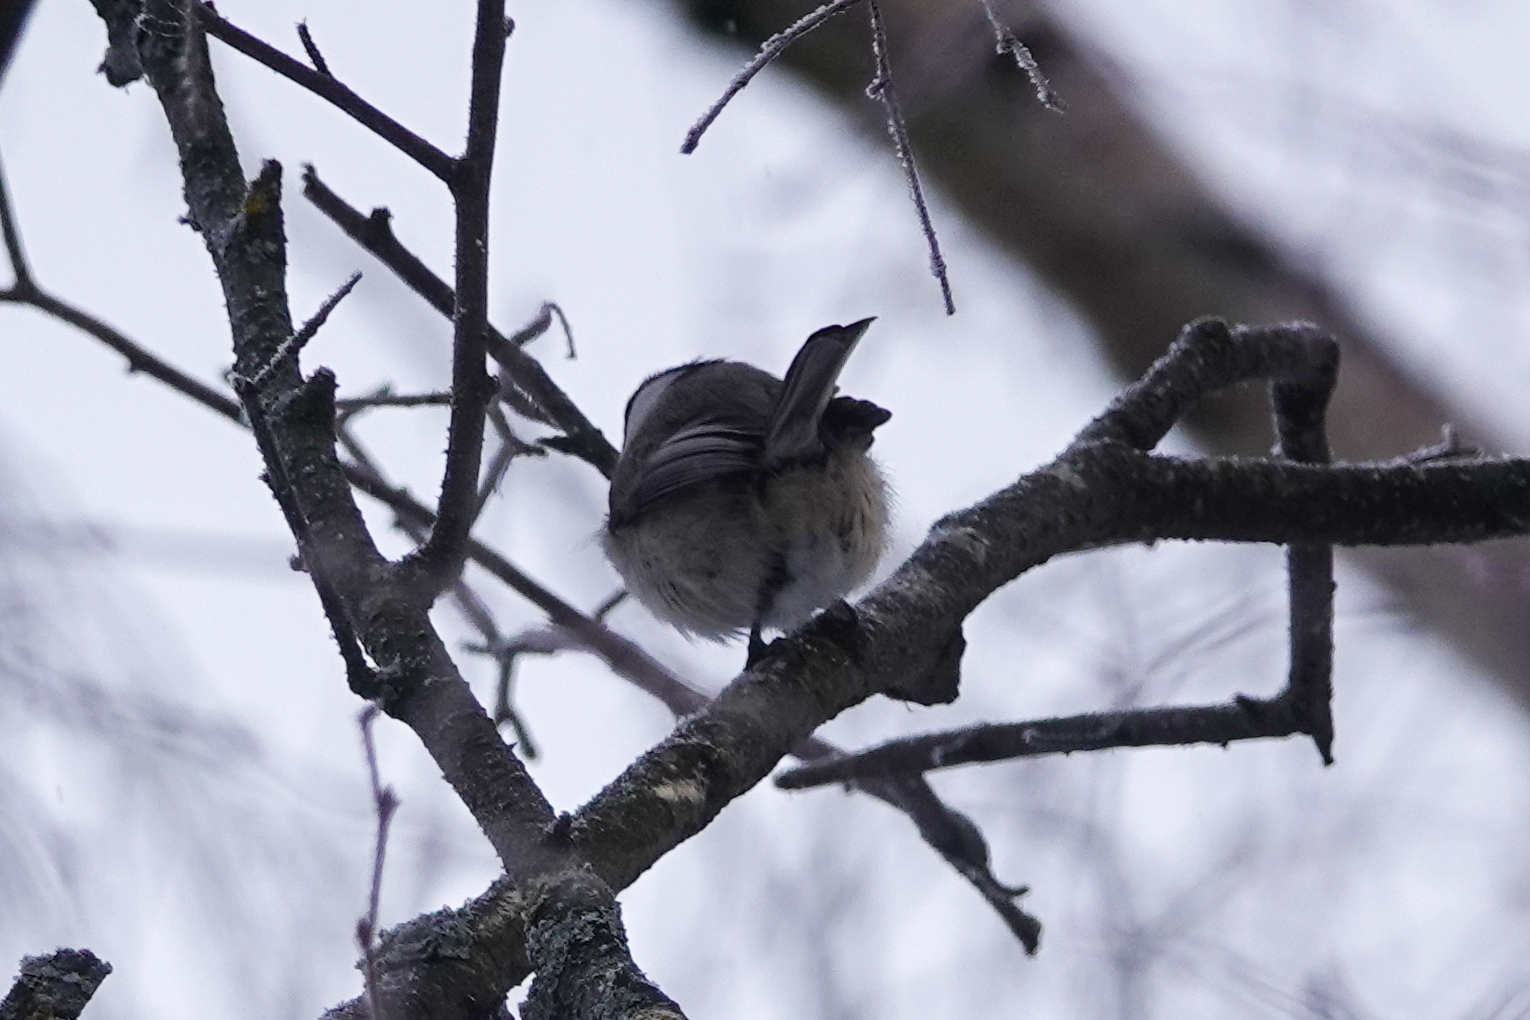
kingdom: Animalia
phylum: Chordata
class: Aves
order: Passeriformes
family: Paridae
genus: Poecile
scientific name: Poecile montanus
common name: Willow tit
